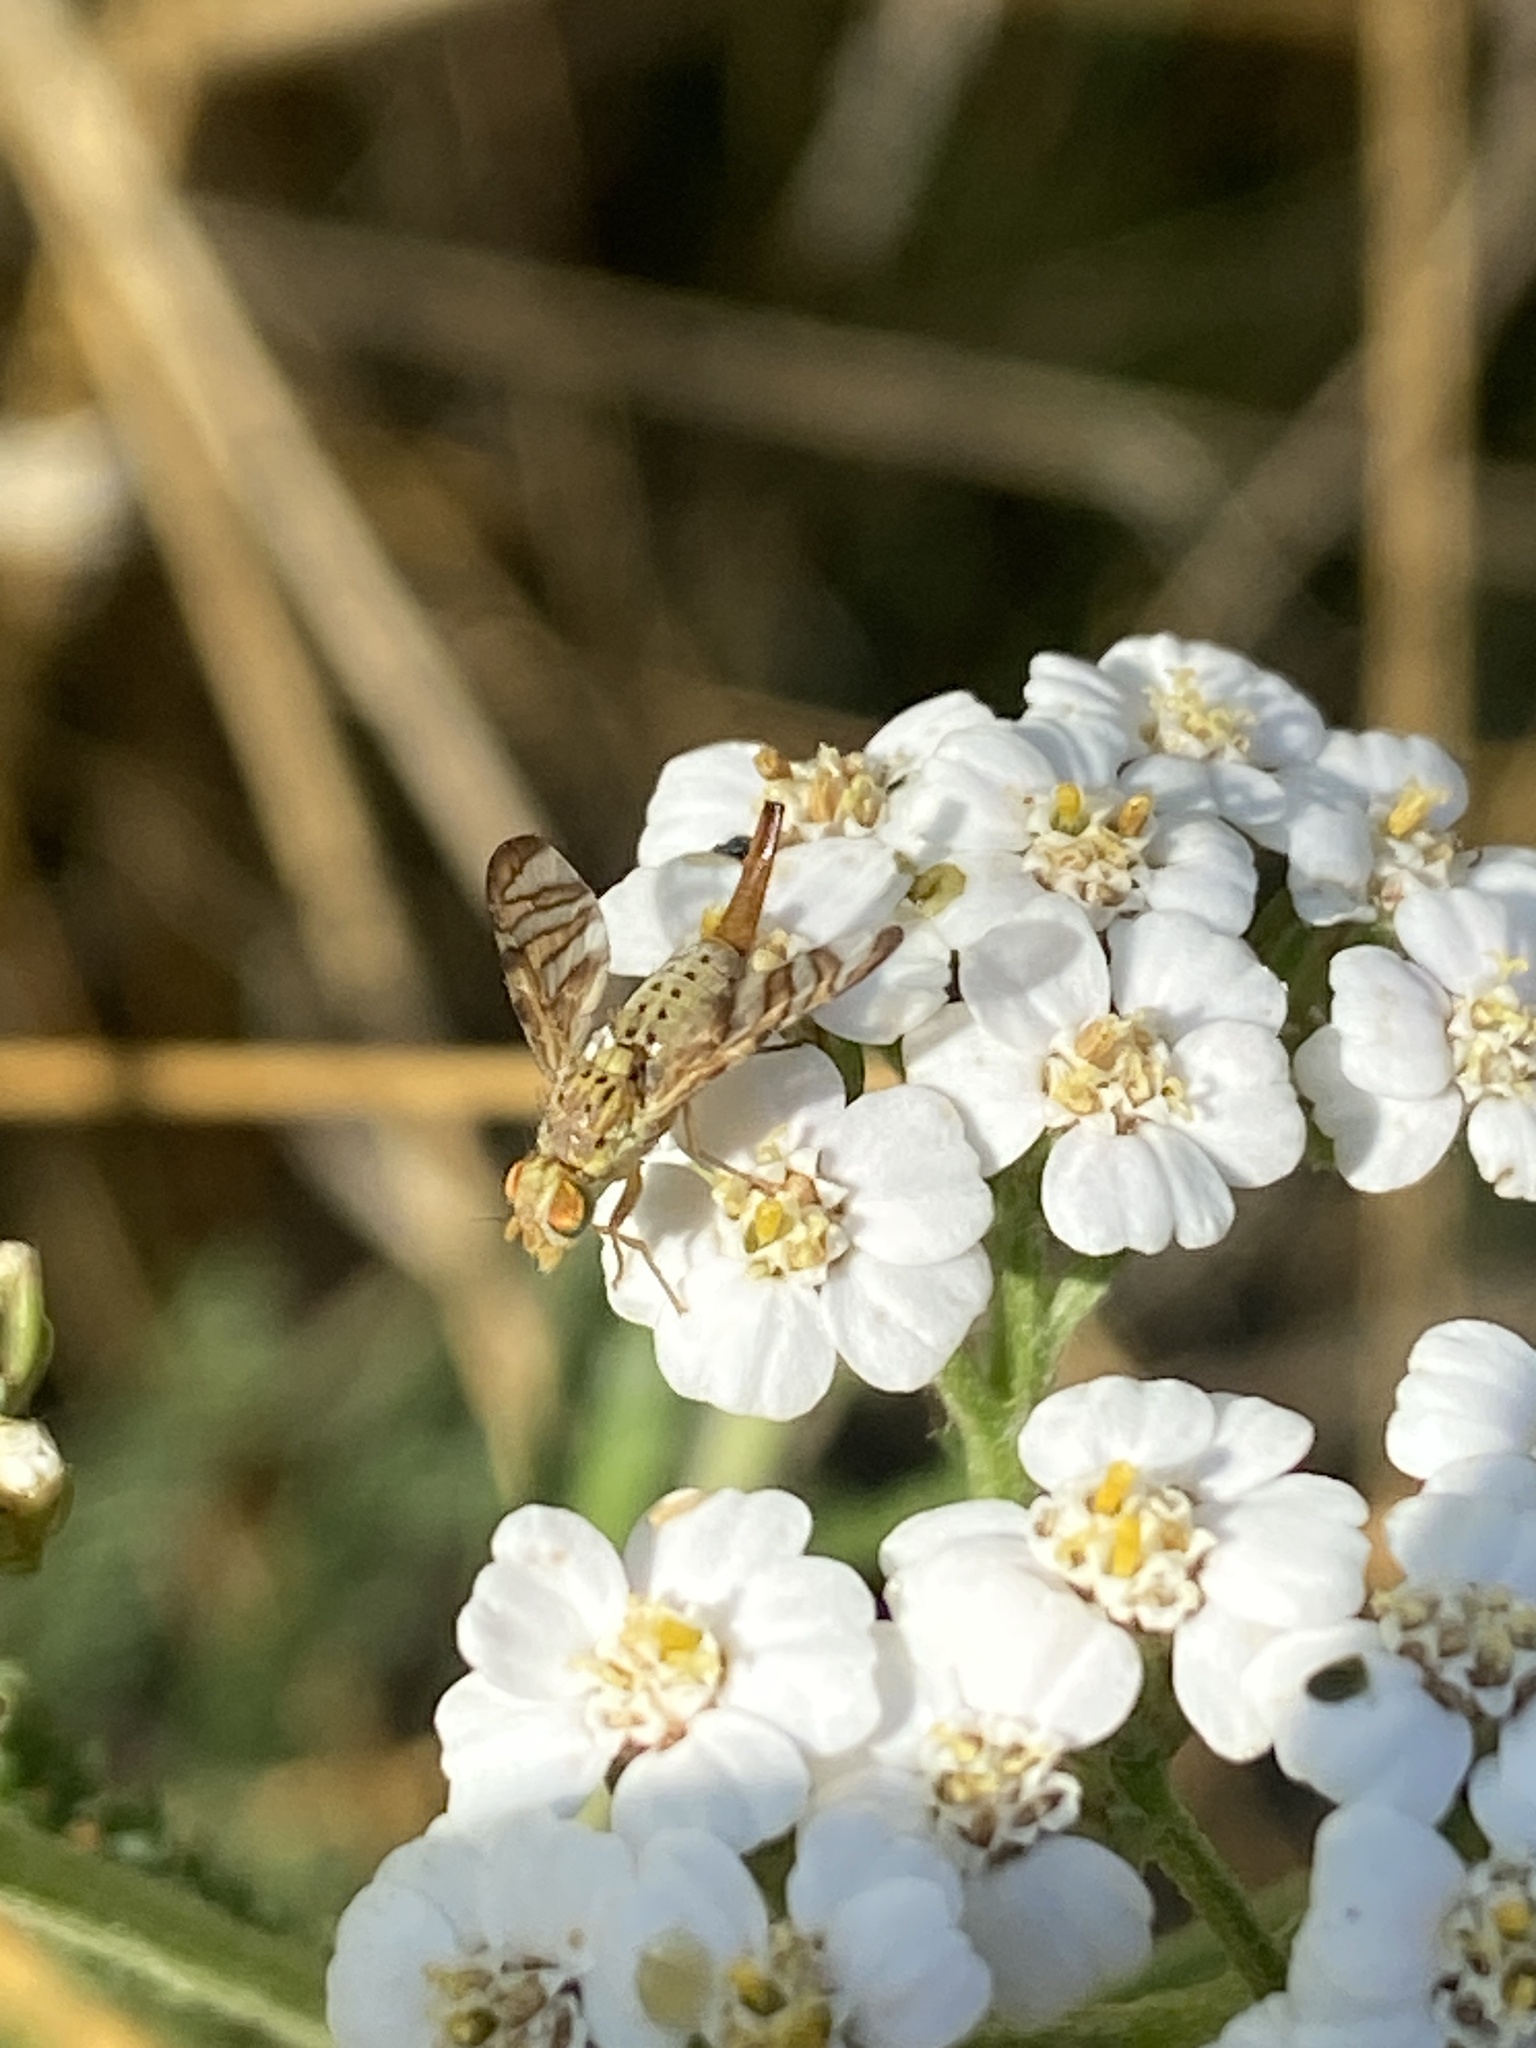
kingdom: Animalia
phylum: Arthropoda
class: Insecta
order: Diptera
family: Tephritidae
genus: Chaetorellia
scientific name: Chaetorellia jaceae
